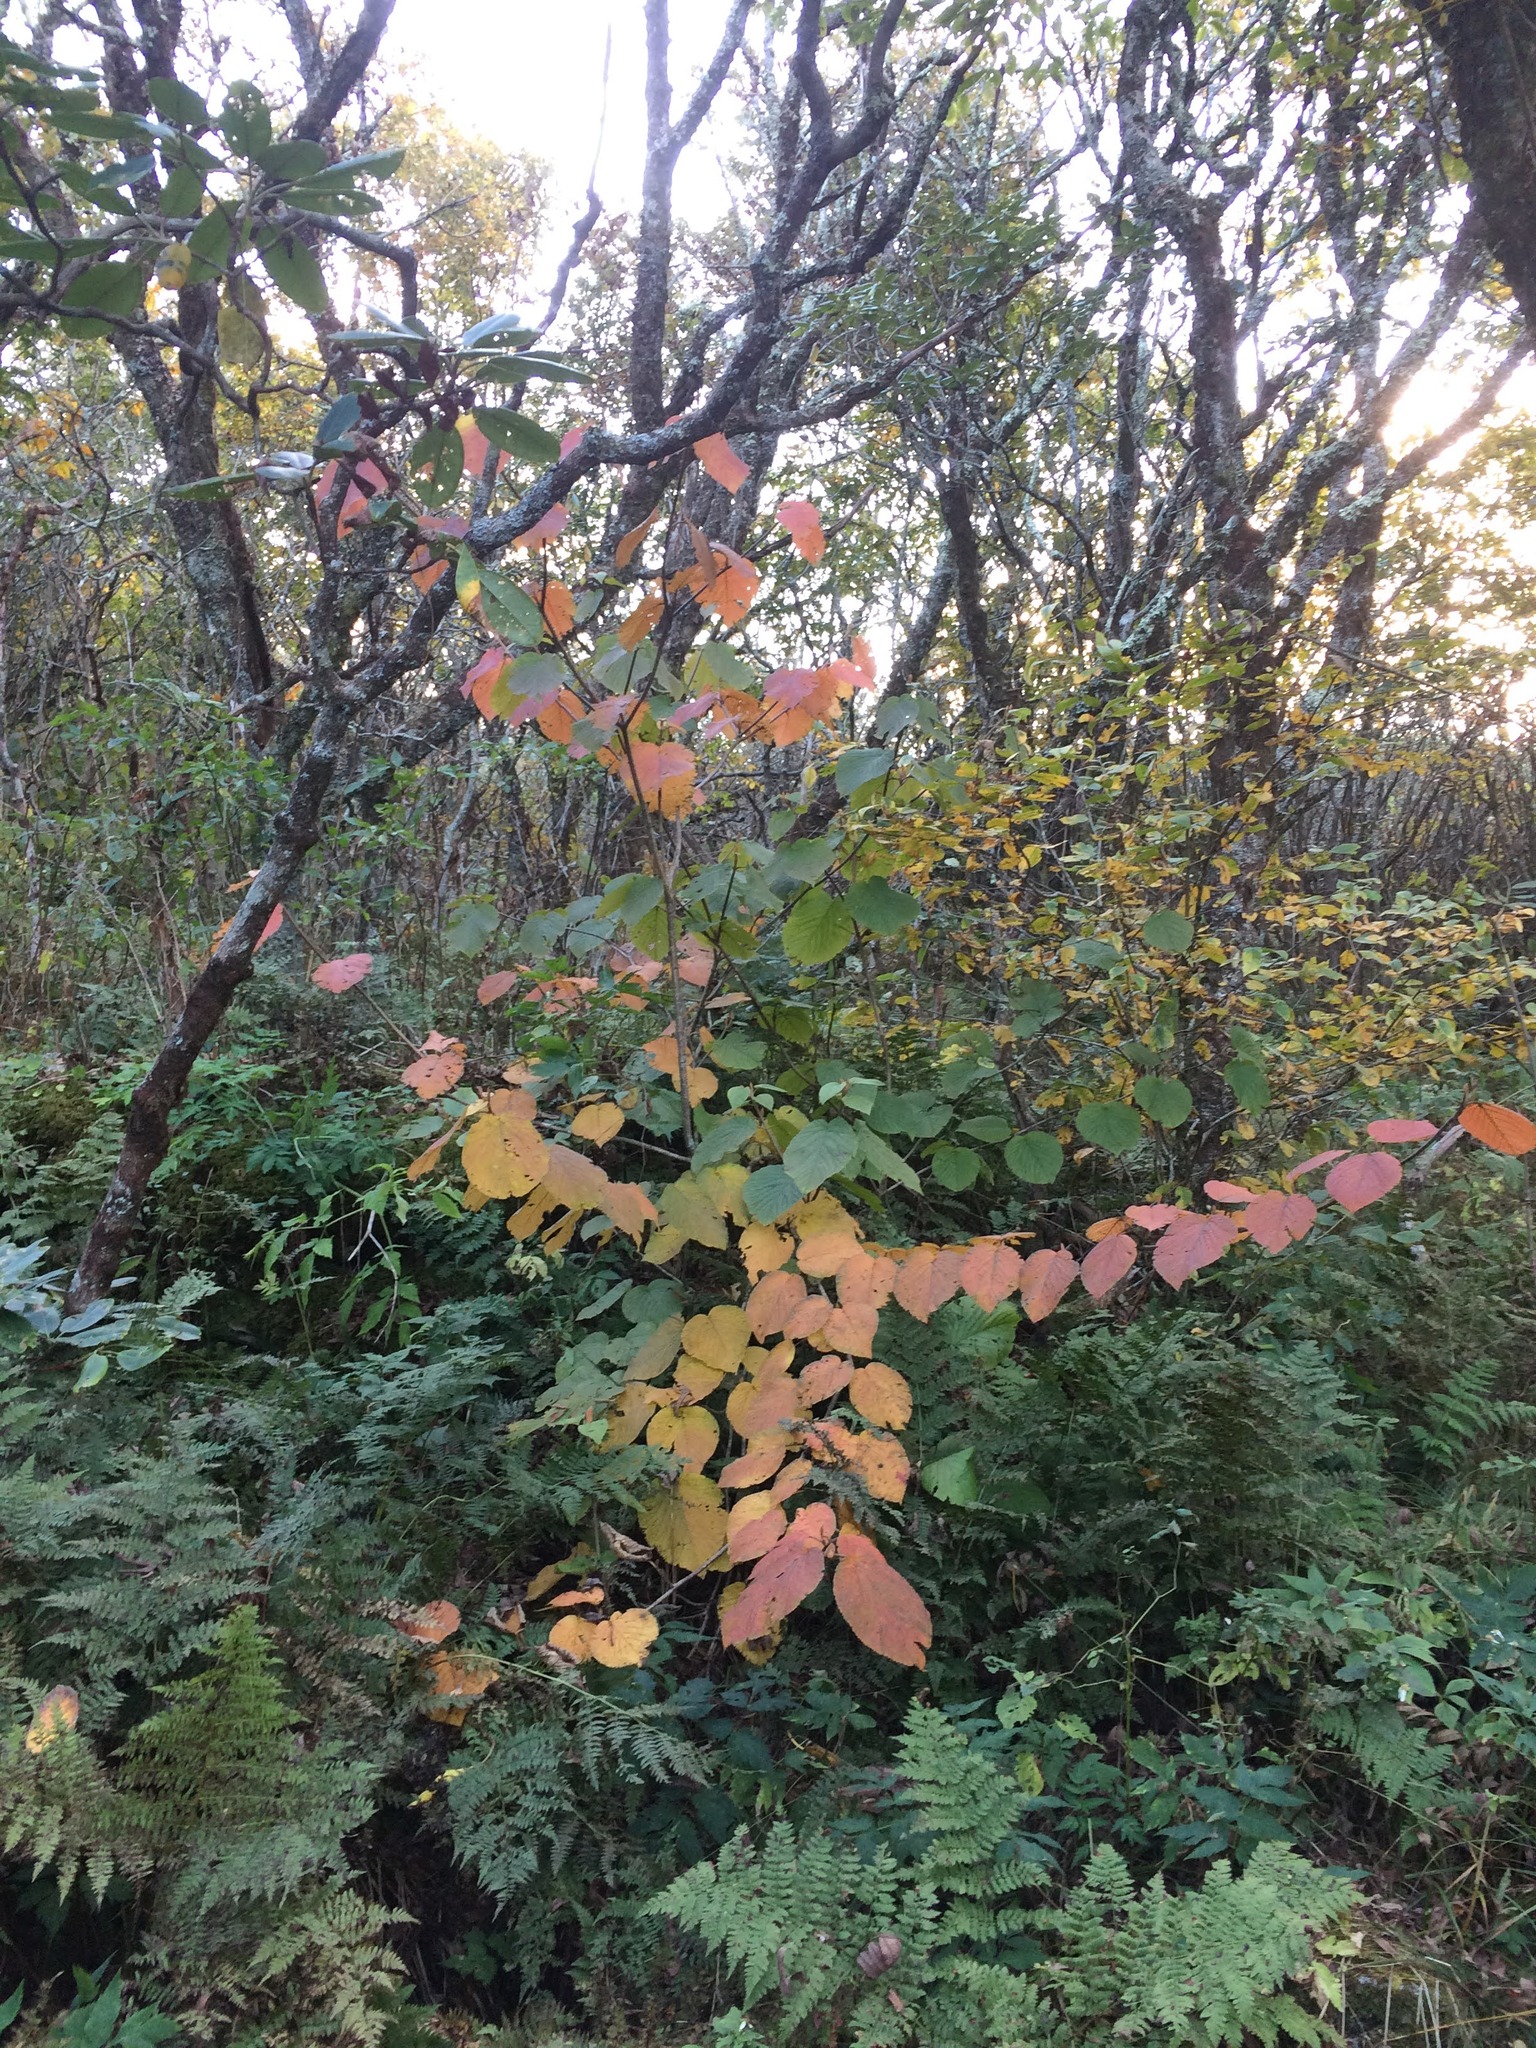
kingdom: Plantae
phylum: Tracheophyta
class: Magnoliopsida
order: Dipsacales
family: Viburnaceae
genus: Viburnum
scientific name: Viburnum lantanoides
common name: Hobblebush
